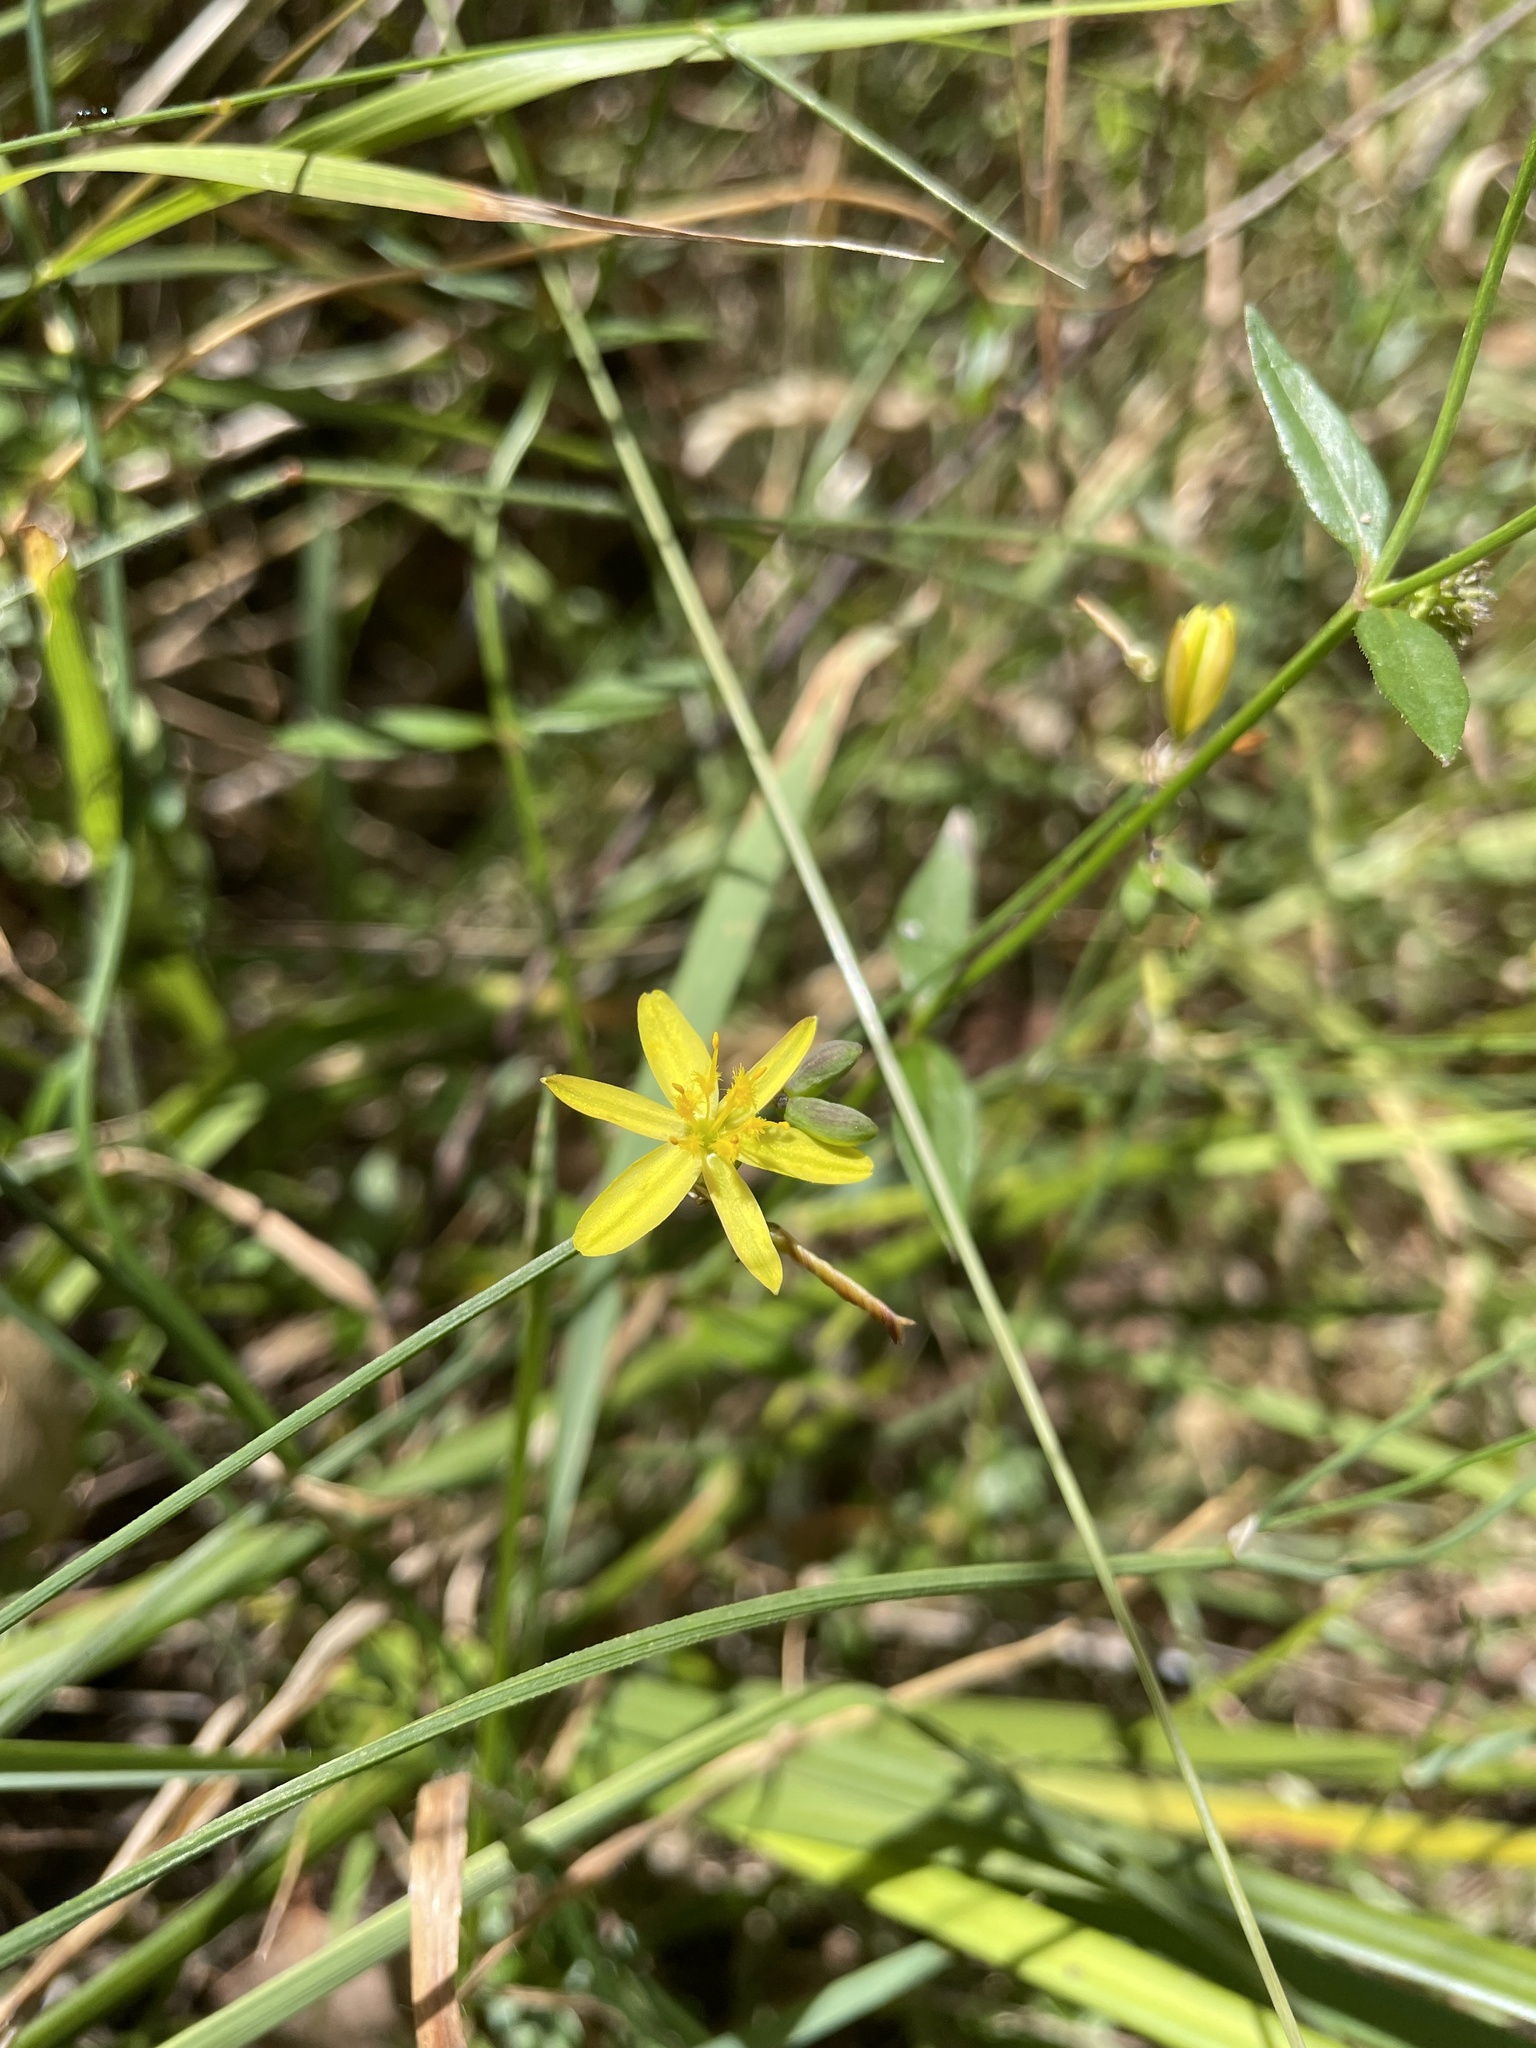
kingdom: Plantae
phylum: Tracheophyta
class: Liliopsida
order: Asparagales
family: Asphodelaceae
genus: Tricoryne
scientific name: Tricoryne elatior
